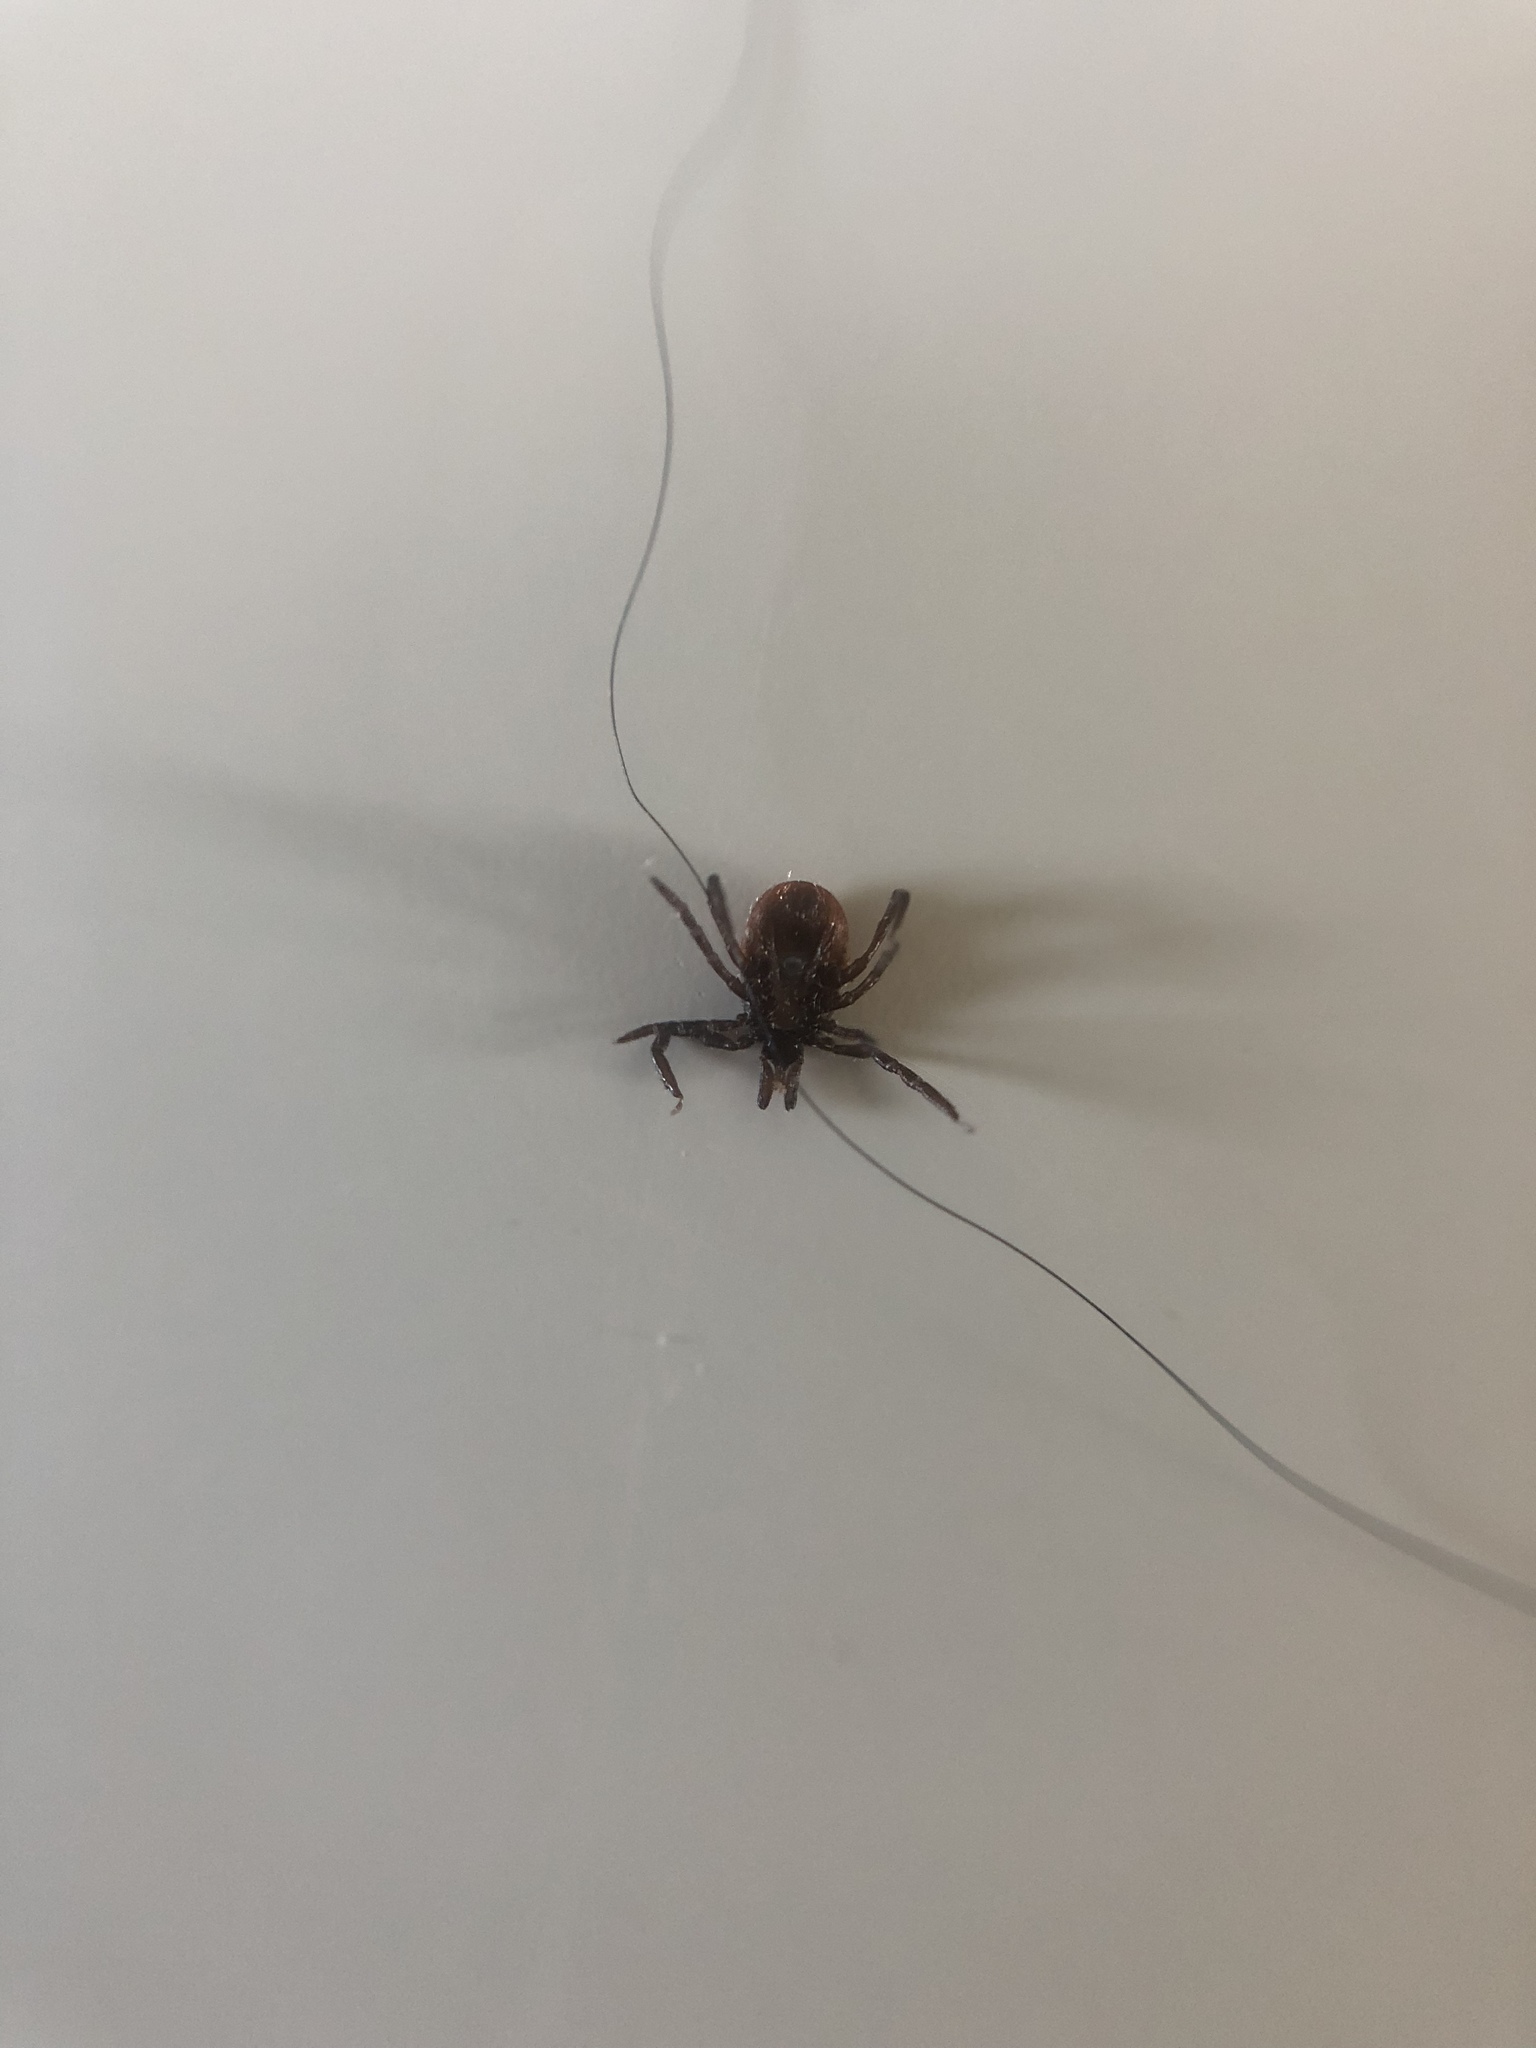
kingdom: Animalia
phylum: Arthropoda
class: Arachnida
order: Ixodida
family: Ixodidae
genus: Ixodes
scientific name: Ixodes ricinus
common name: Castor bean tick
